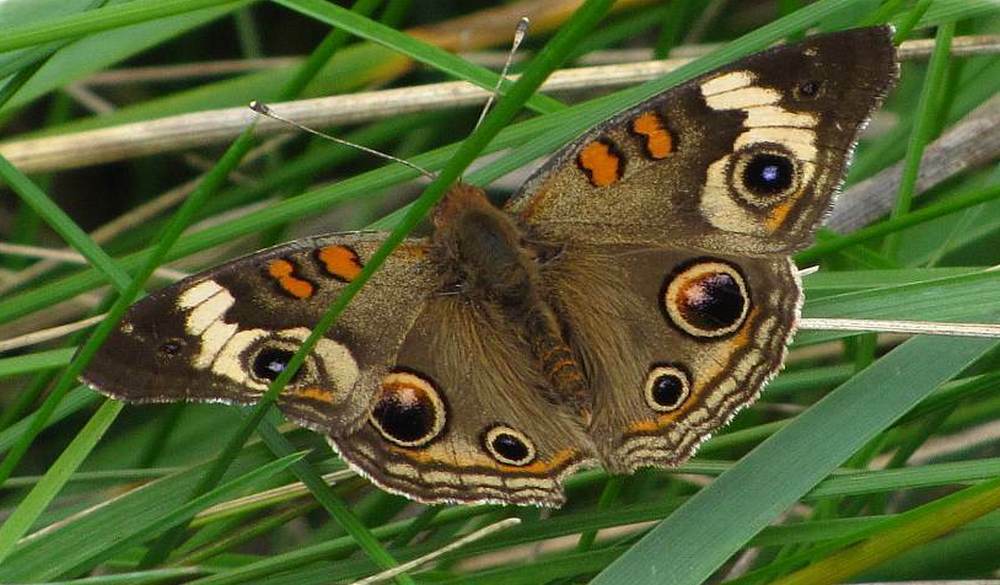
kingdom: Animalia
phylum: Arthropoda
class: Insecta
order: Lepidoptera
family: Nymphalidae
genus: Junonia
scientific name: Junonia coenia
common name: Common buckeye
